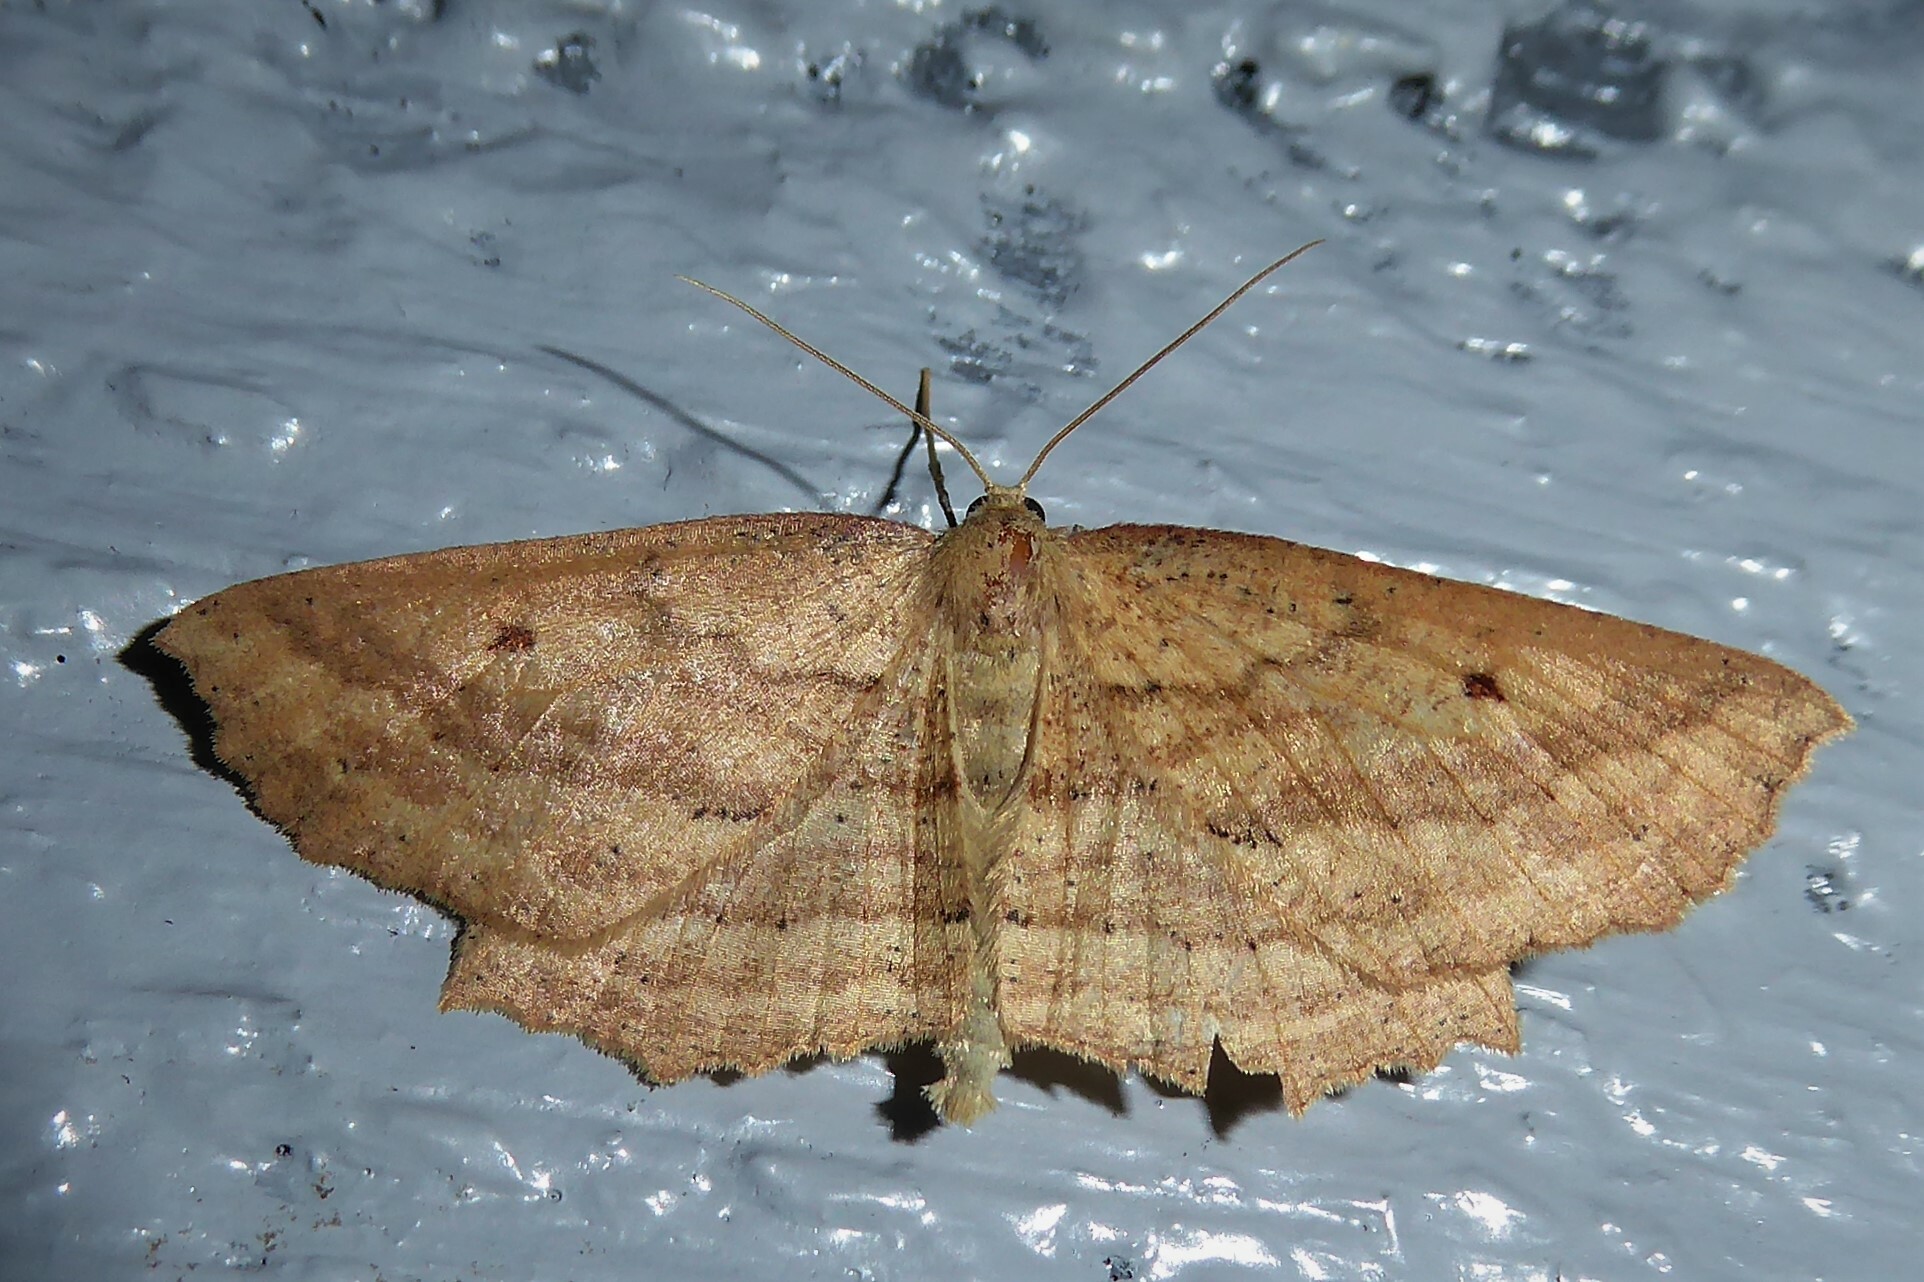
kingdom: Animalia
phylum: Arthropoda
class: Insecta
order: Lepidoptera
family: Geometridae
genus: Xyridacma
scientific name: Xyridacma veronicae
